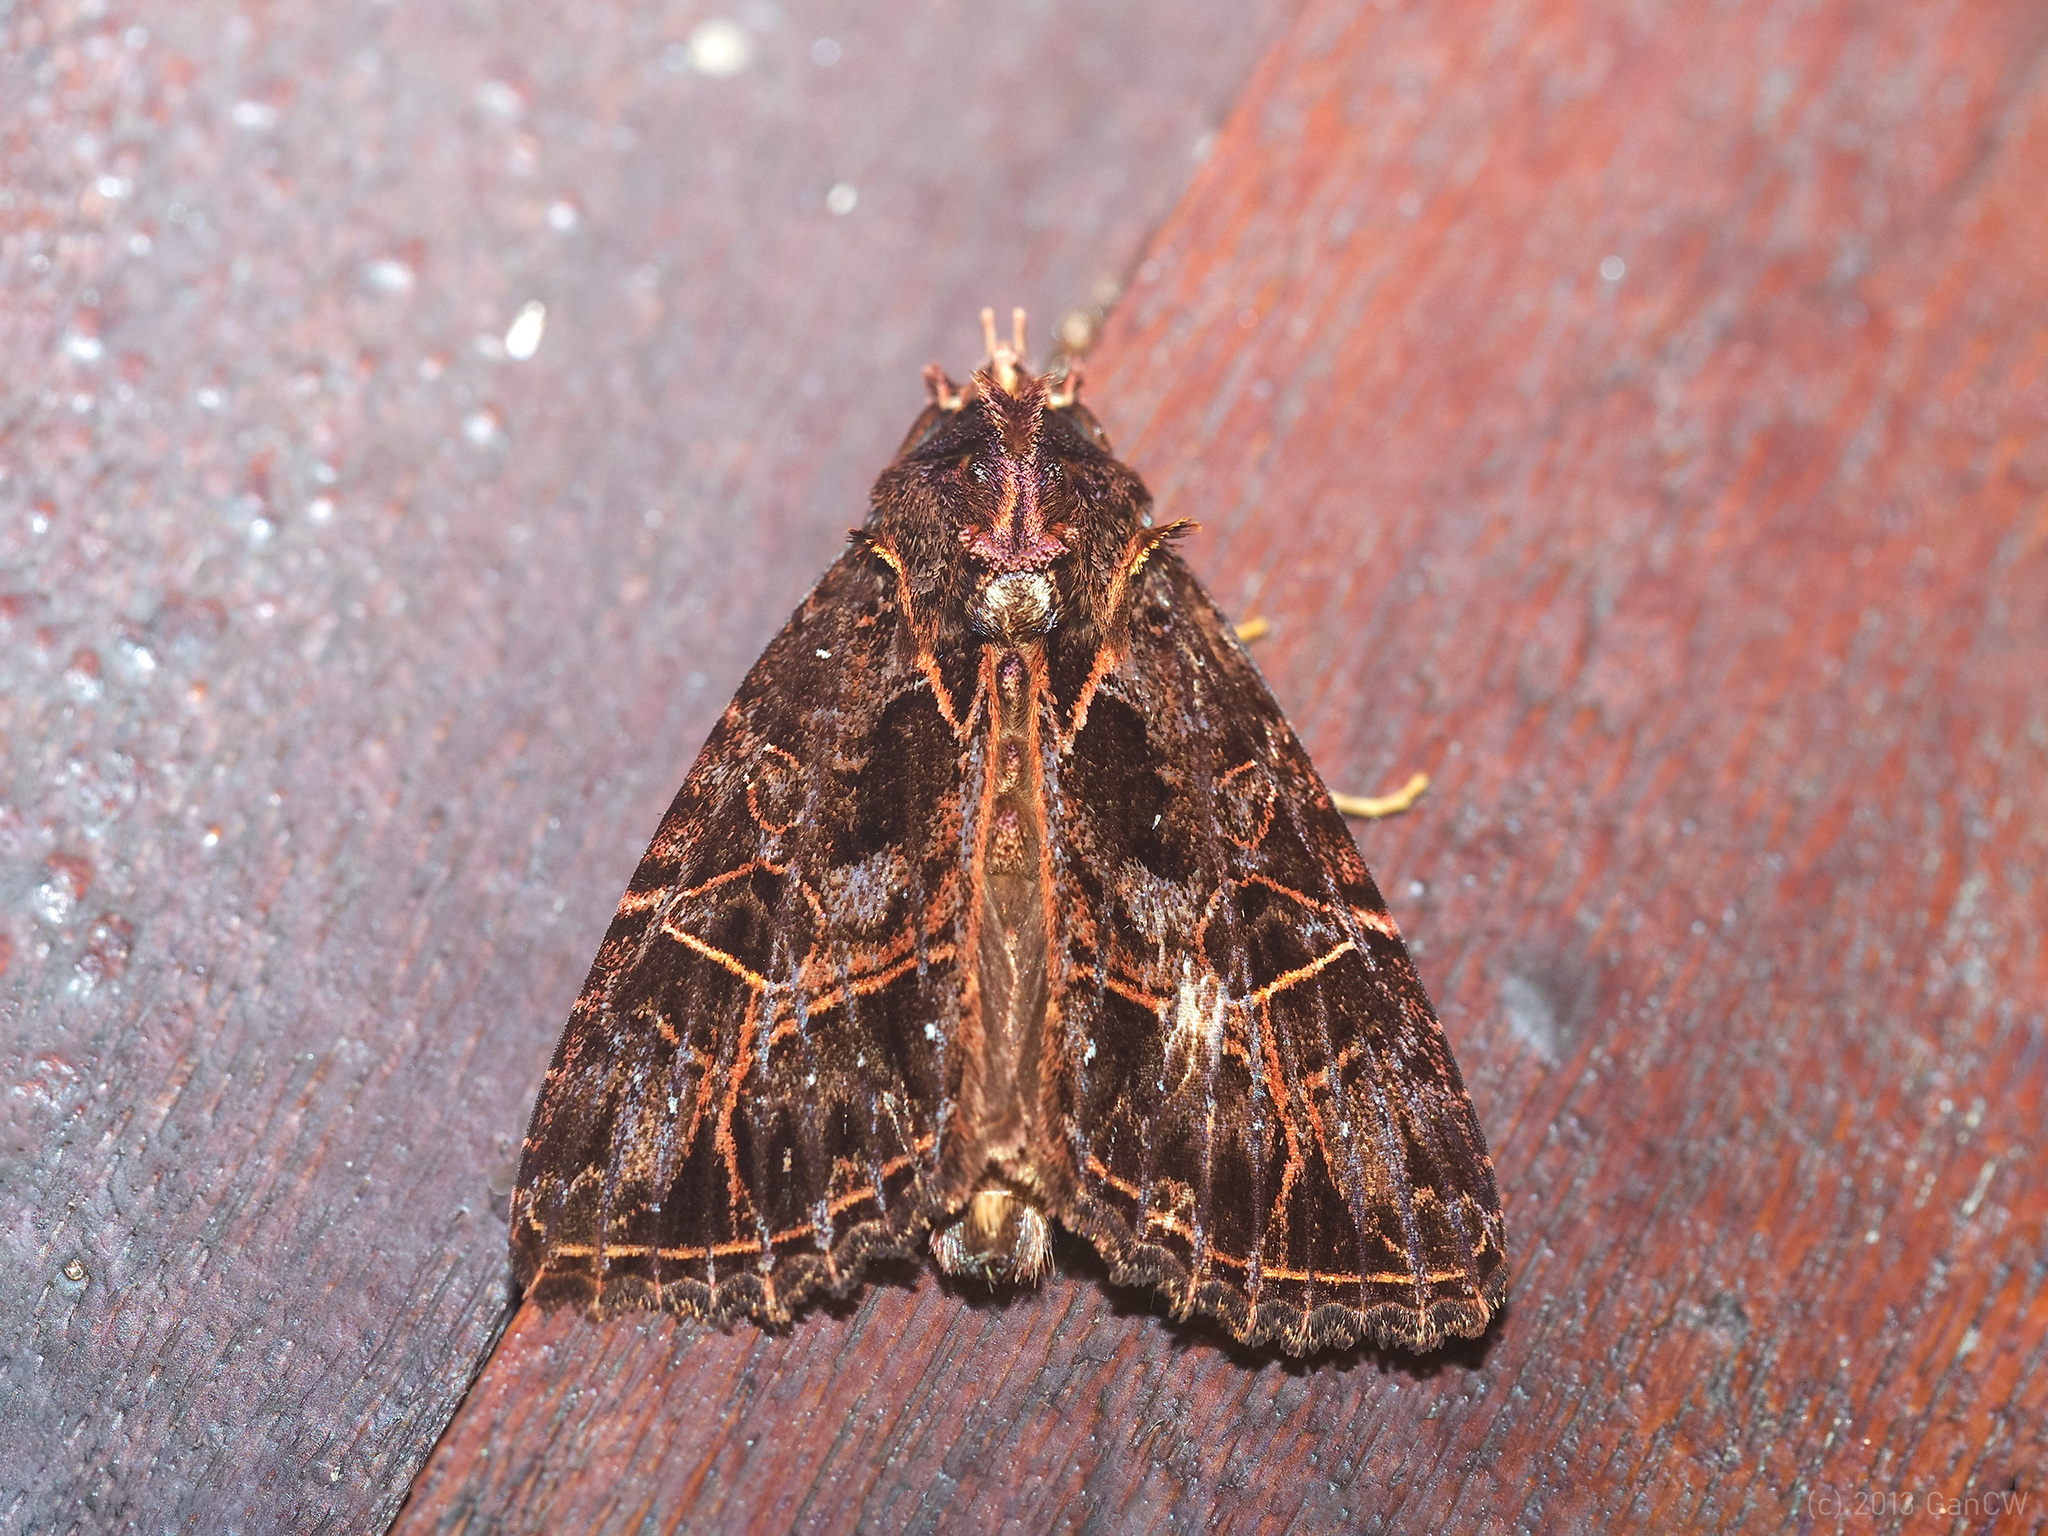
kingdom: Animalia
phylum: Arthropoda
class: Insecta
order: Lepidoptera
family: Noctuidae
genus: Ancara
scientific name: Ancara replicans
